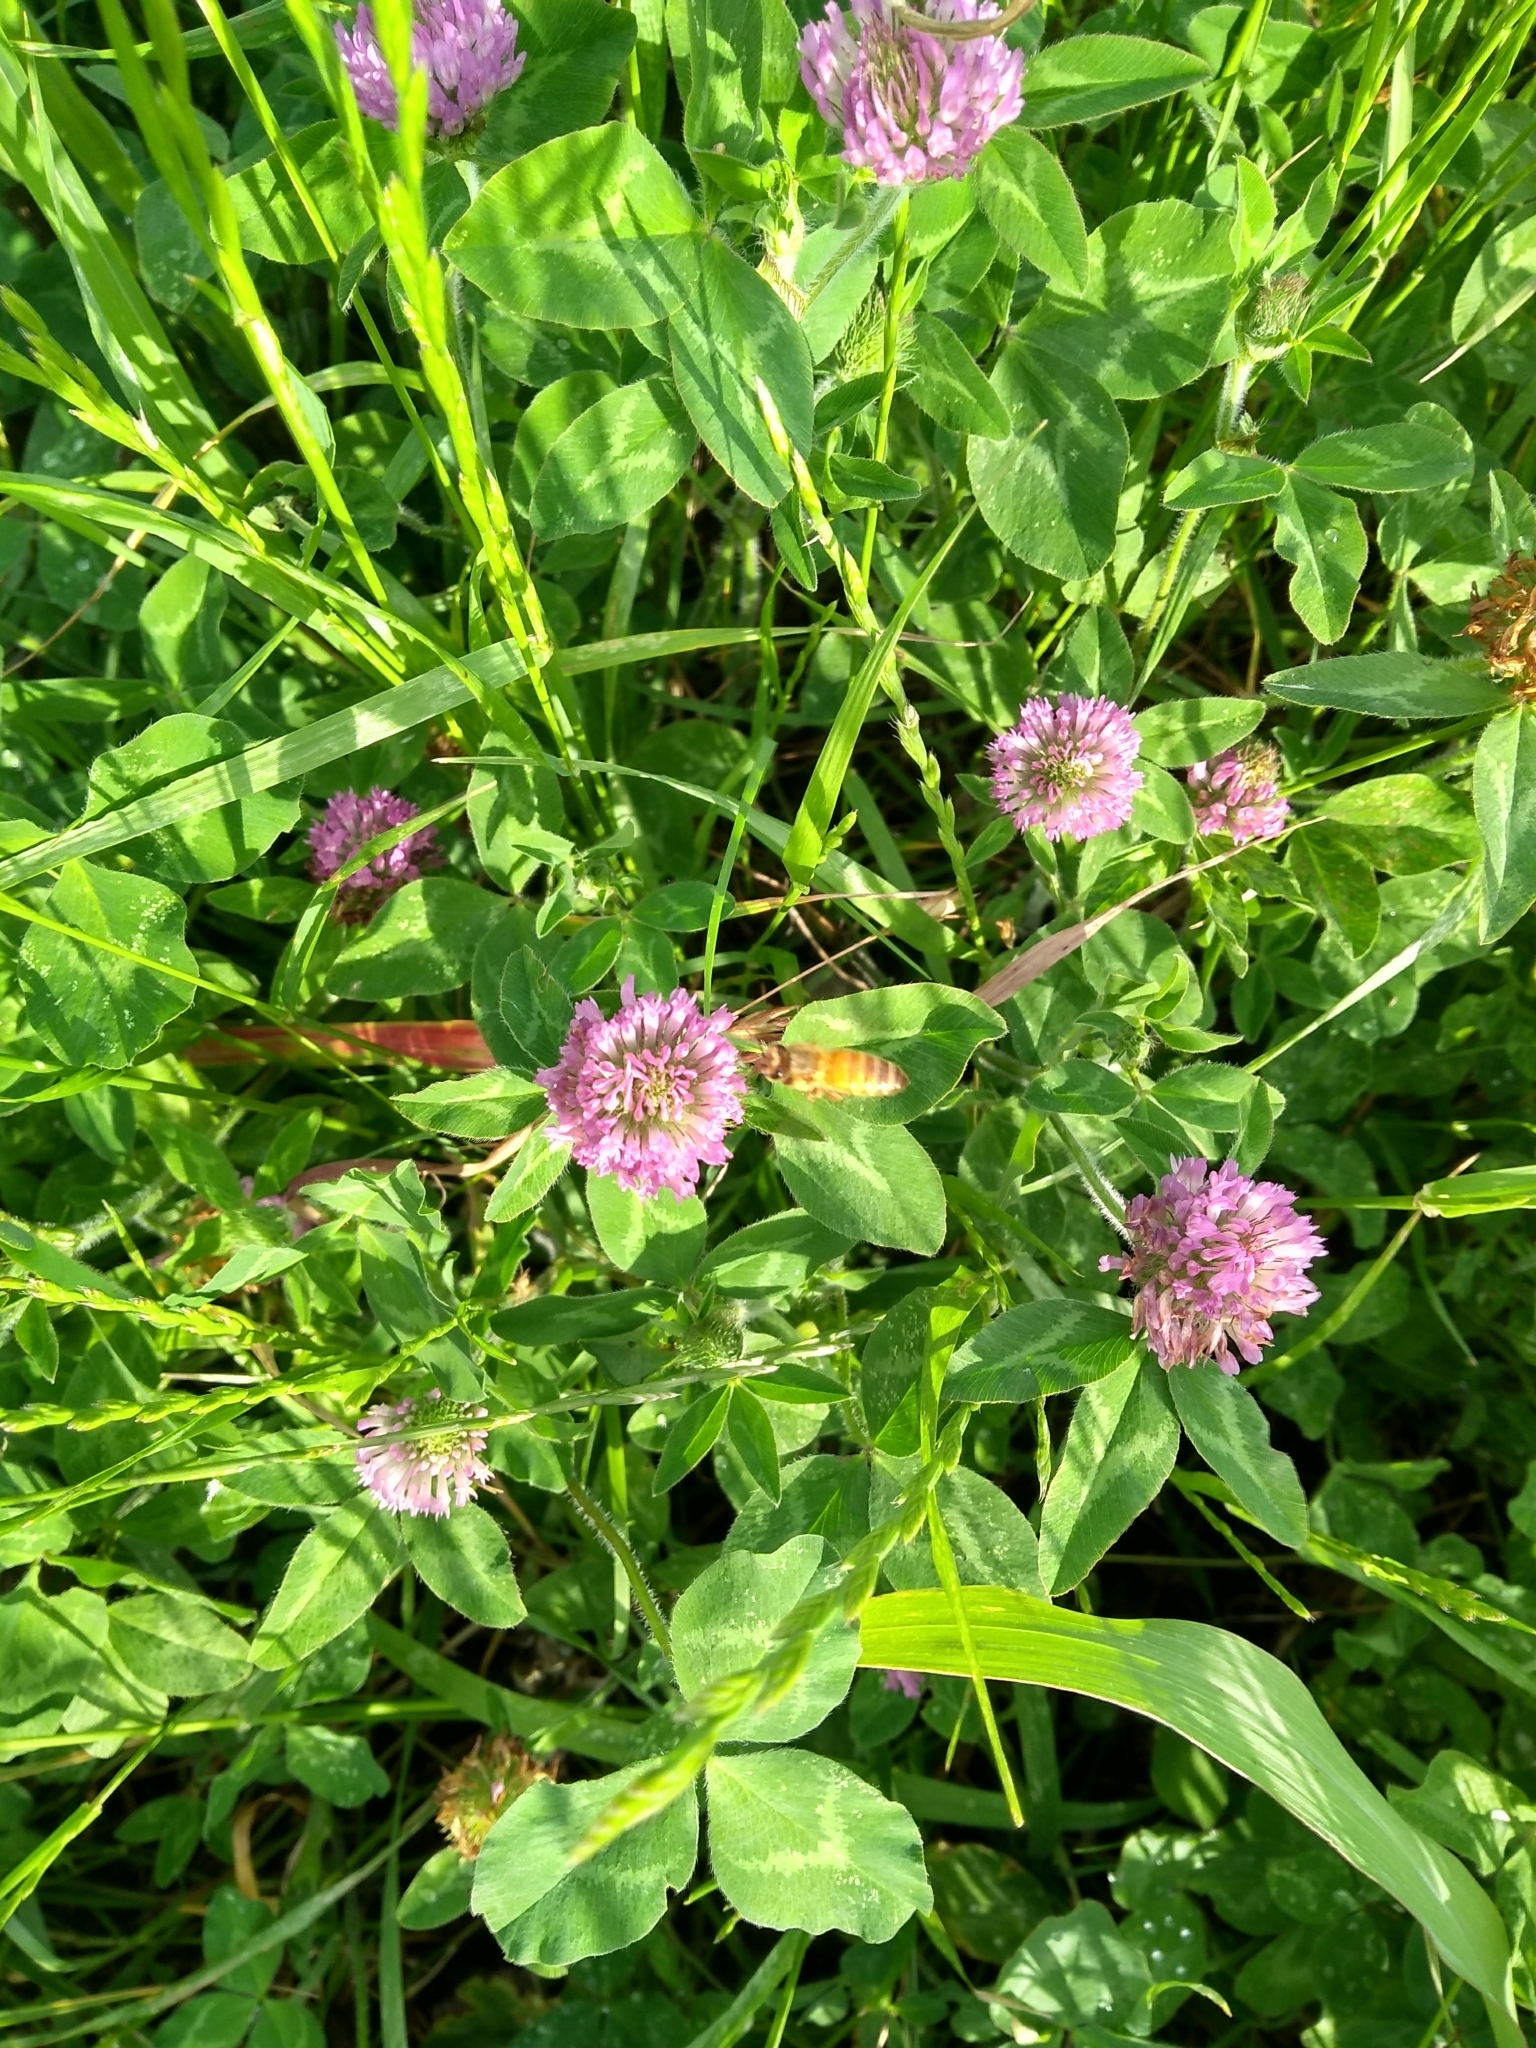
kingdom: Animalia
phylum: Arthropoda
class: Insecta
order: Hymenoptera
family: Apidae
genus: Apis
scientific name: Apis mellifera
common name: Honey bee
